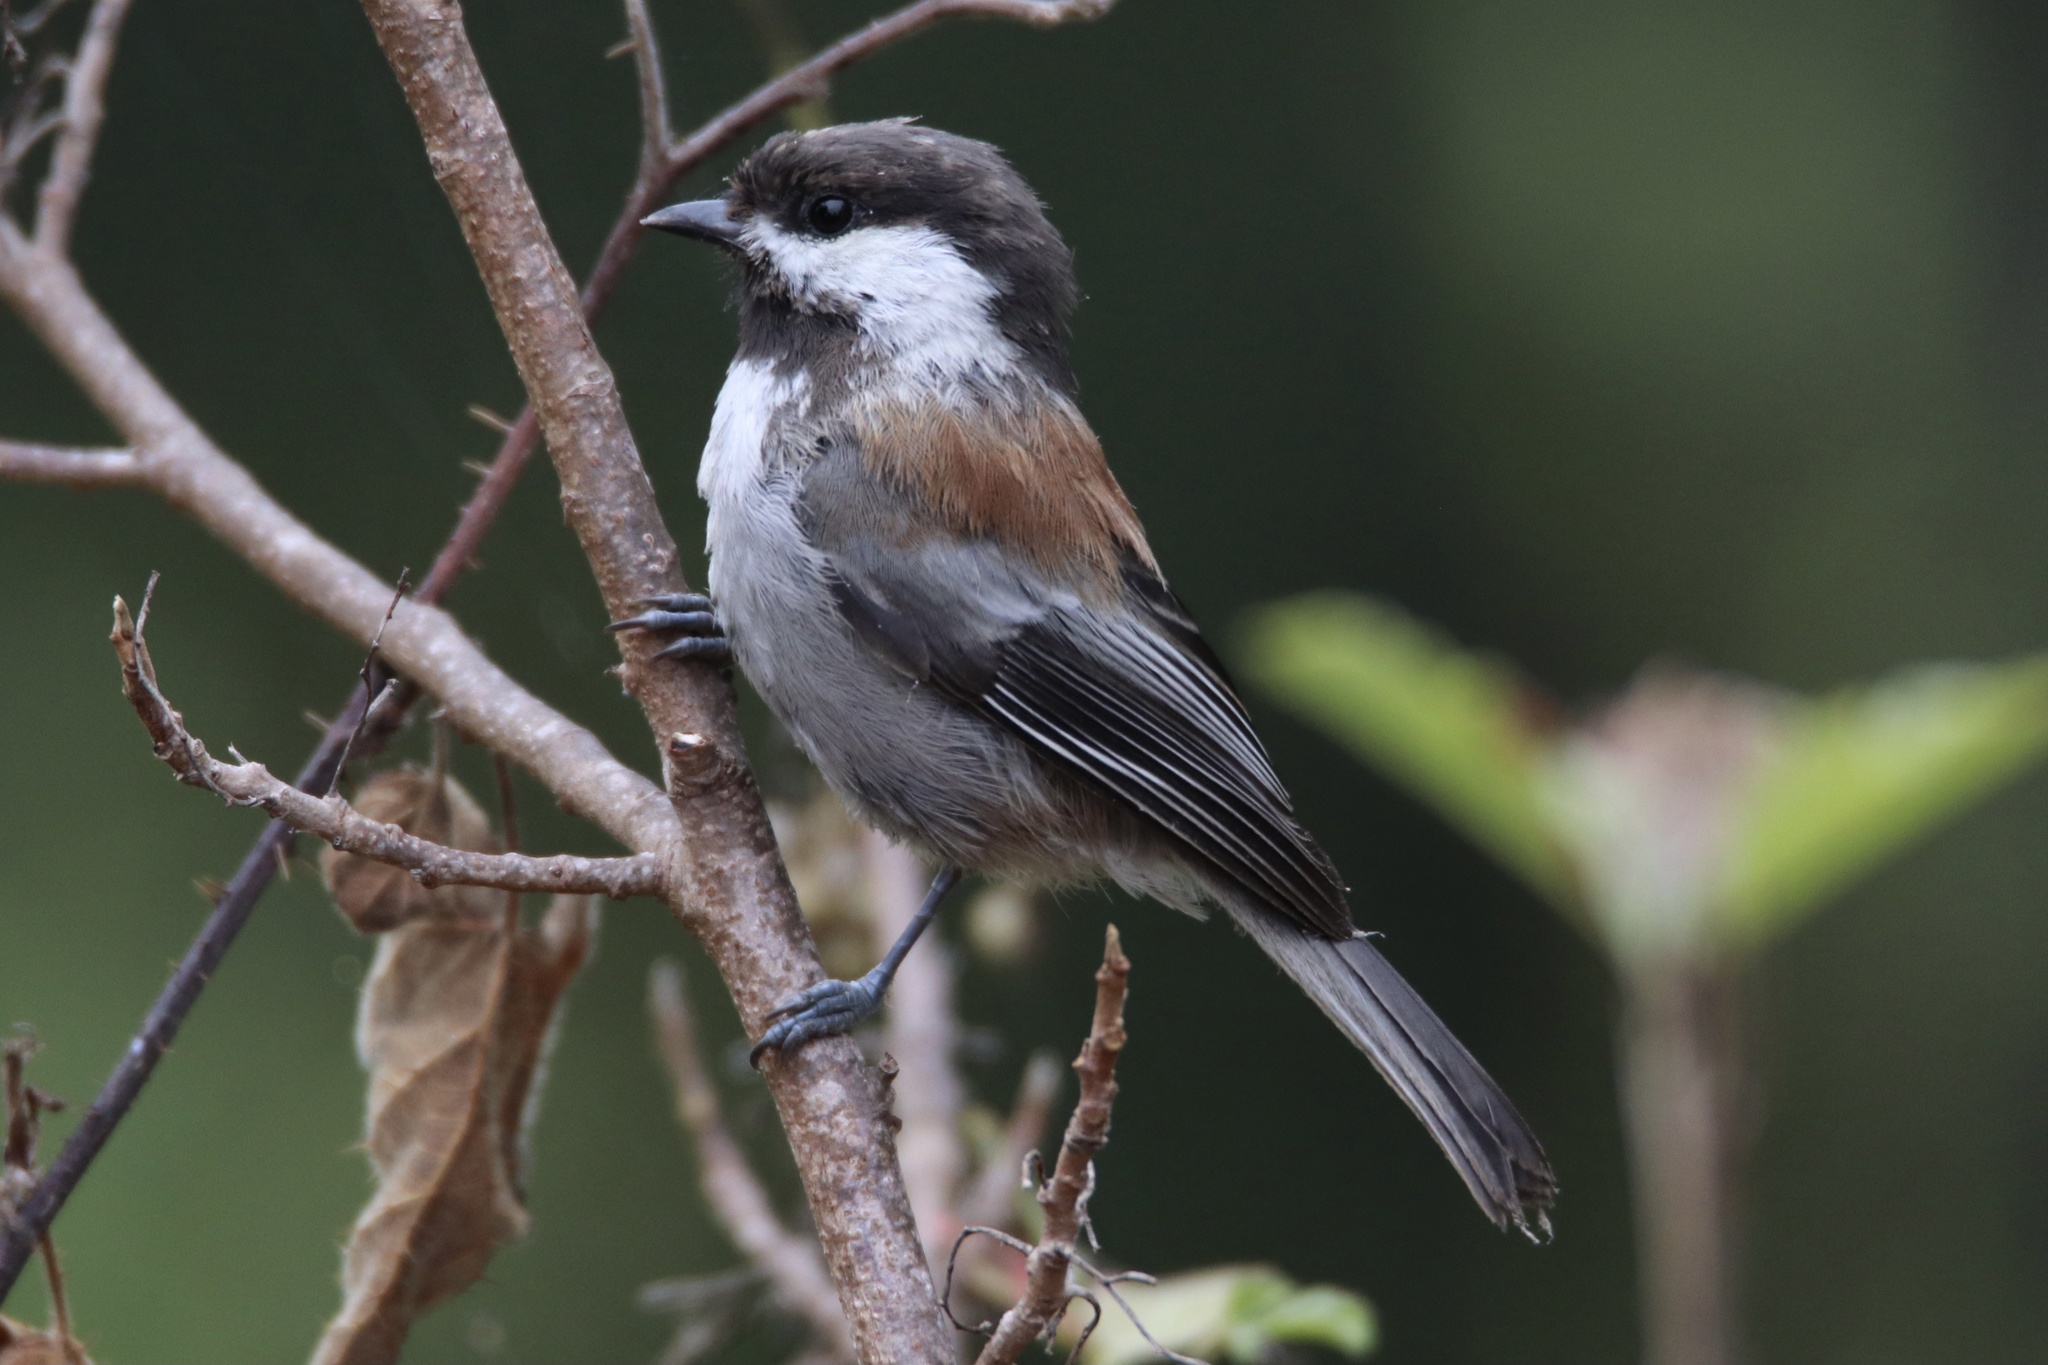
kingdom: Animalia
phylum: Chordata
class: Aves
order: Passeriformes
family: Paridae
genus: Poecile
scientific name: Poecile rufescens
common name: Chestnut-backed chickadee
